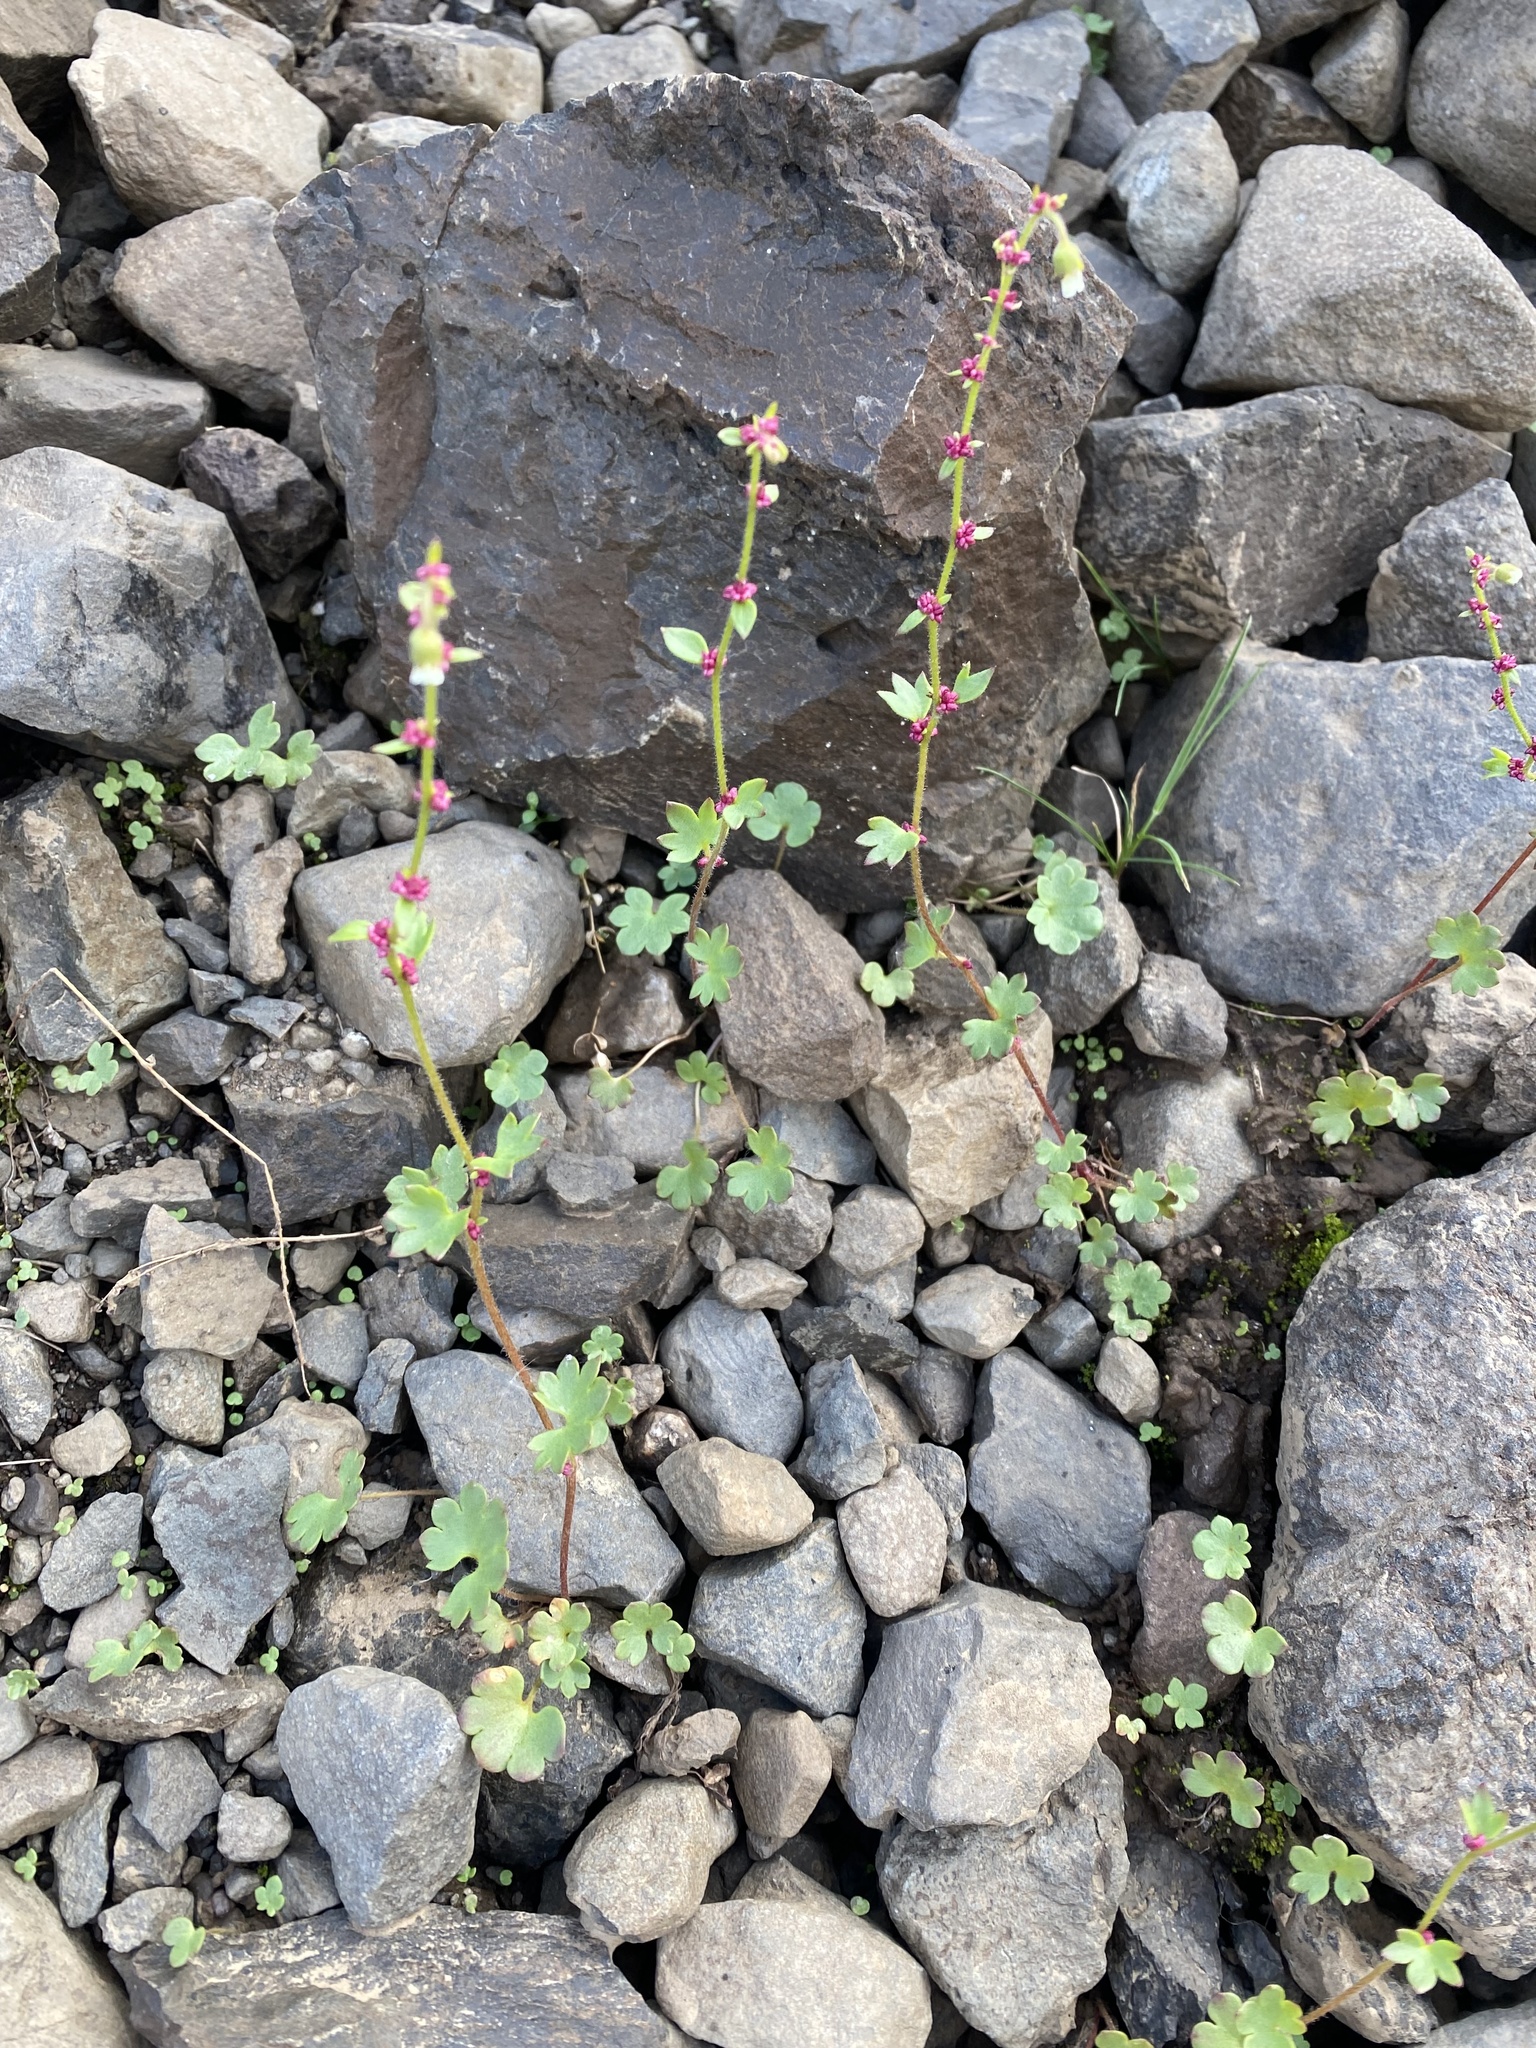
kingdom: Plantae
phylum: Tracheophyta
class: Magnoliopsida
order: Saxifragales
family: Saxifragaceae
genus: Saxifraga
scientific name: Saxifraga cernua
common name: Drooping saxifrage
